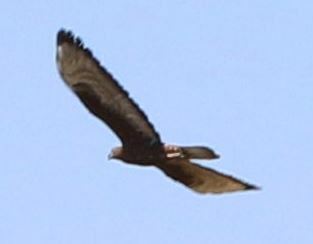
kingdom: Animalia
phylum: Chordata
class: Aves
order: Accipitriformes
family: Accipitridae
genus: Pernis
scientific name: Pernis apivorus
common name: European honey buzzard
